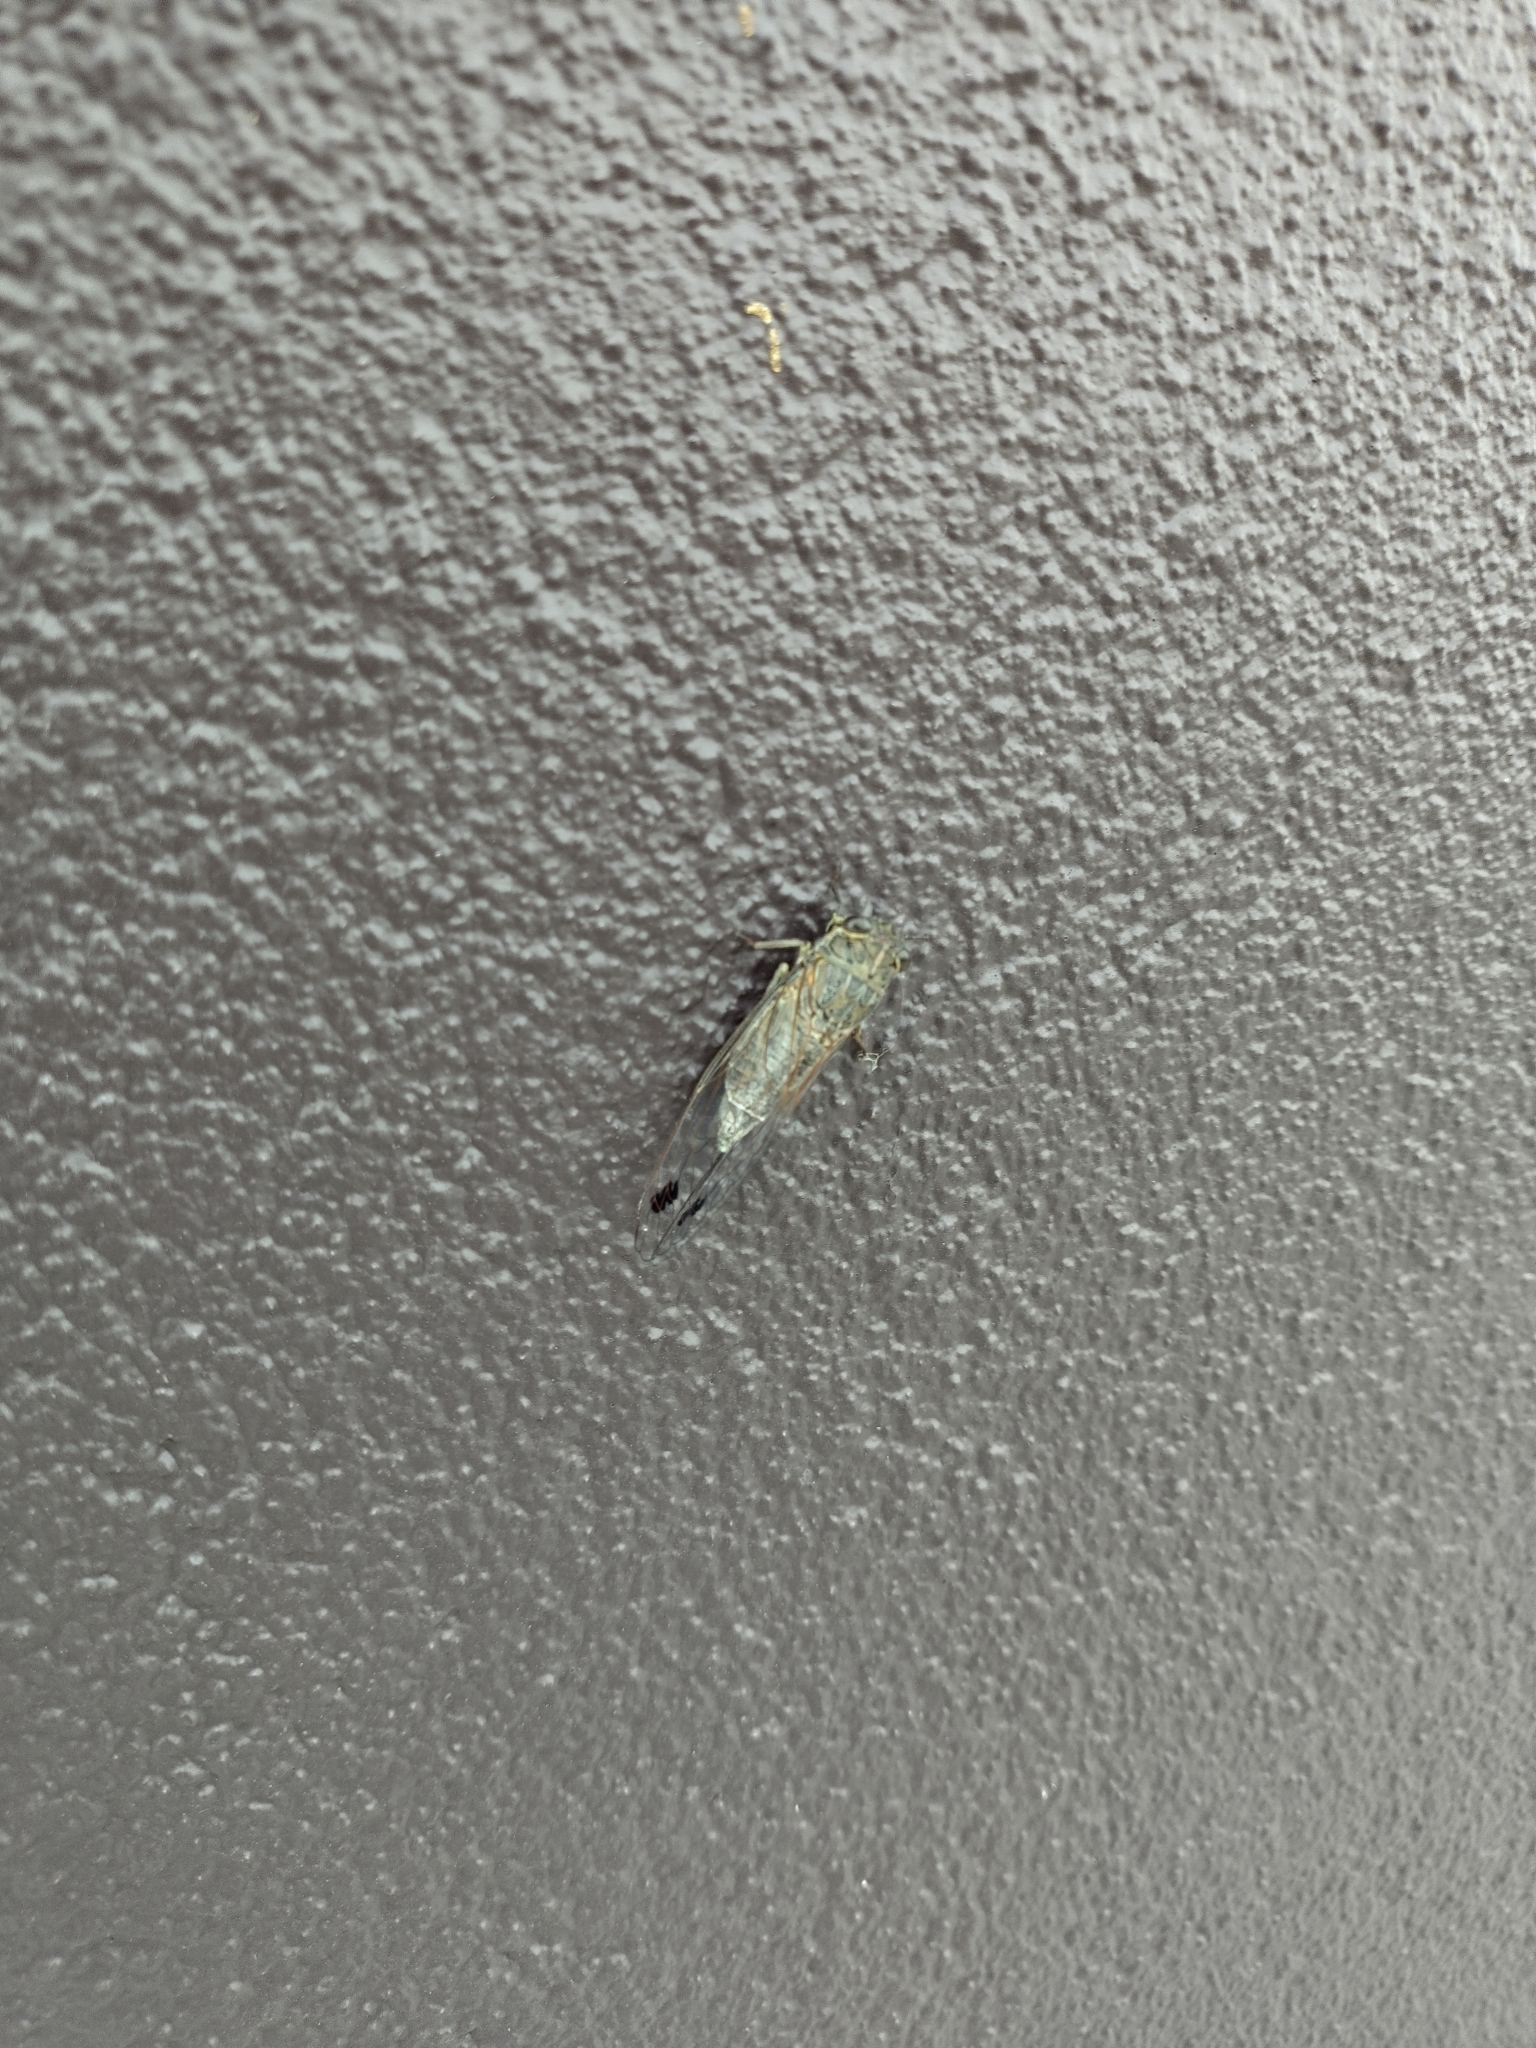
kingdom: Animalia
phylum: Arthropoda
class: Insecta
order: Hemiptera
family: Cicadidae
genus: Galanga
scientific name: Galanga labeculata
